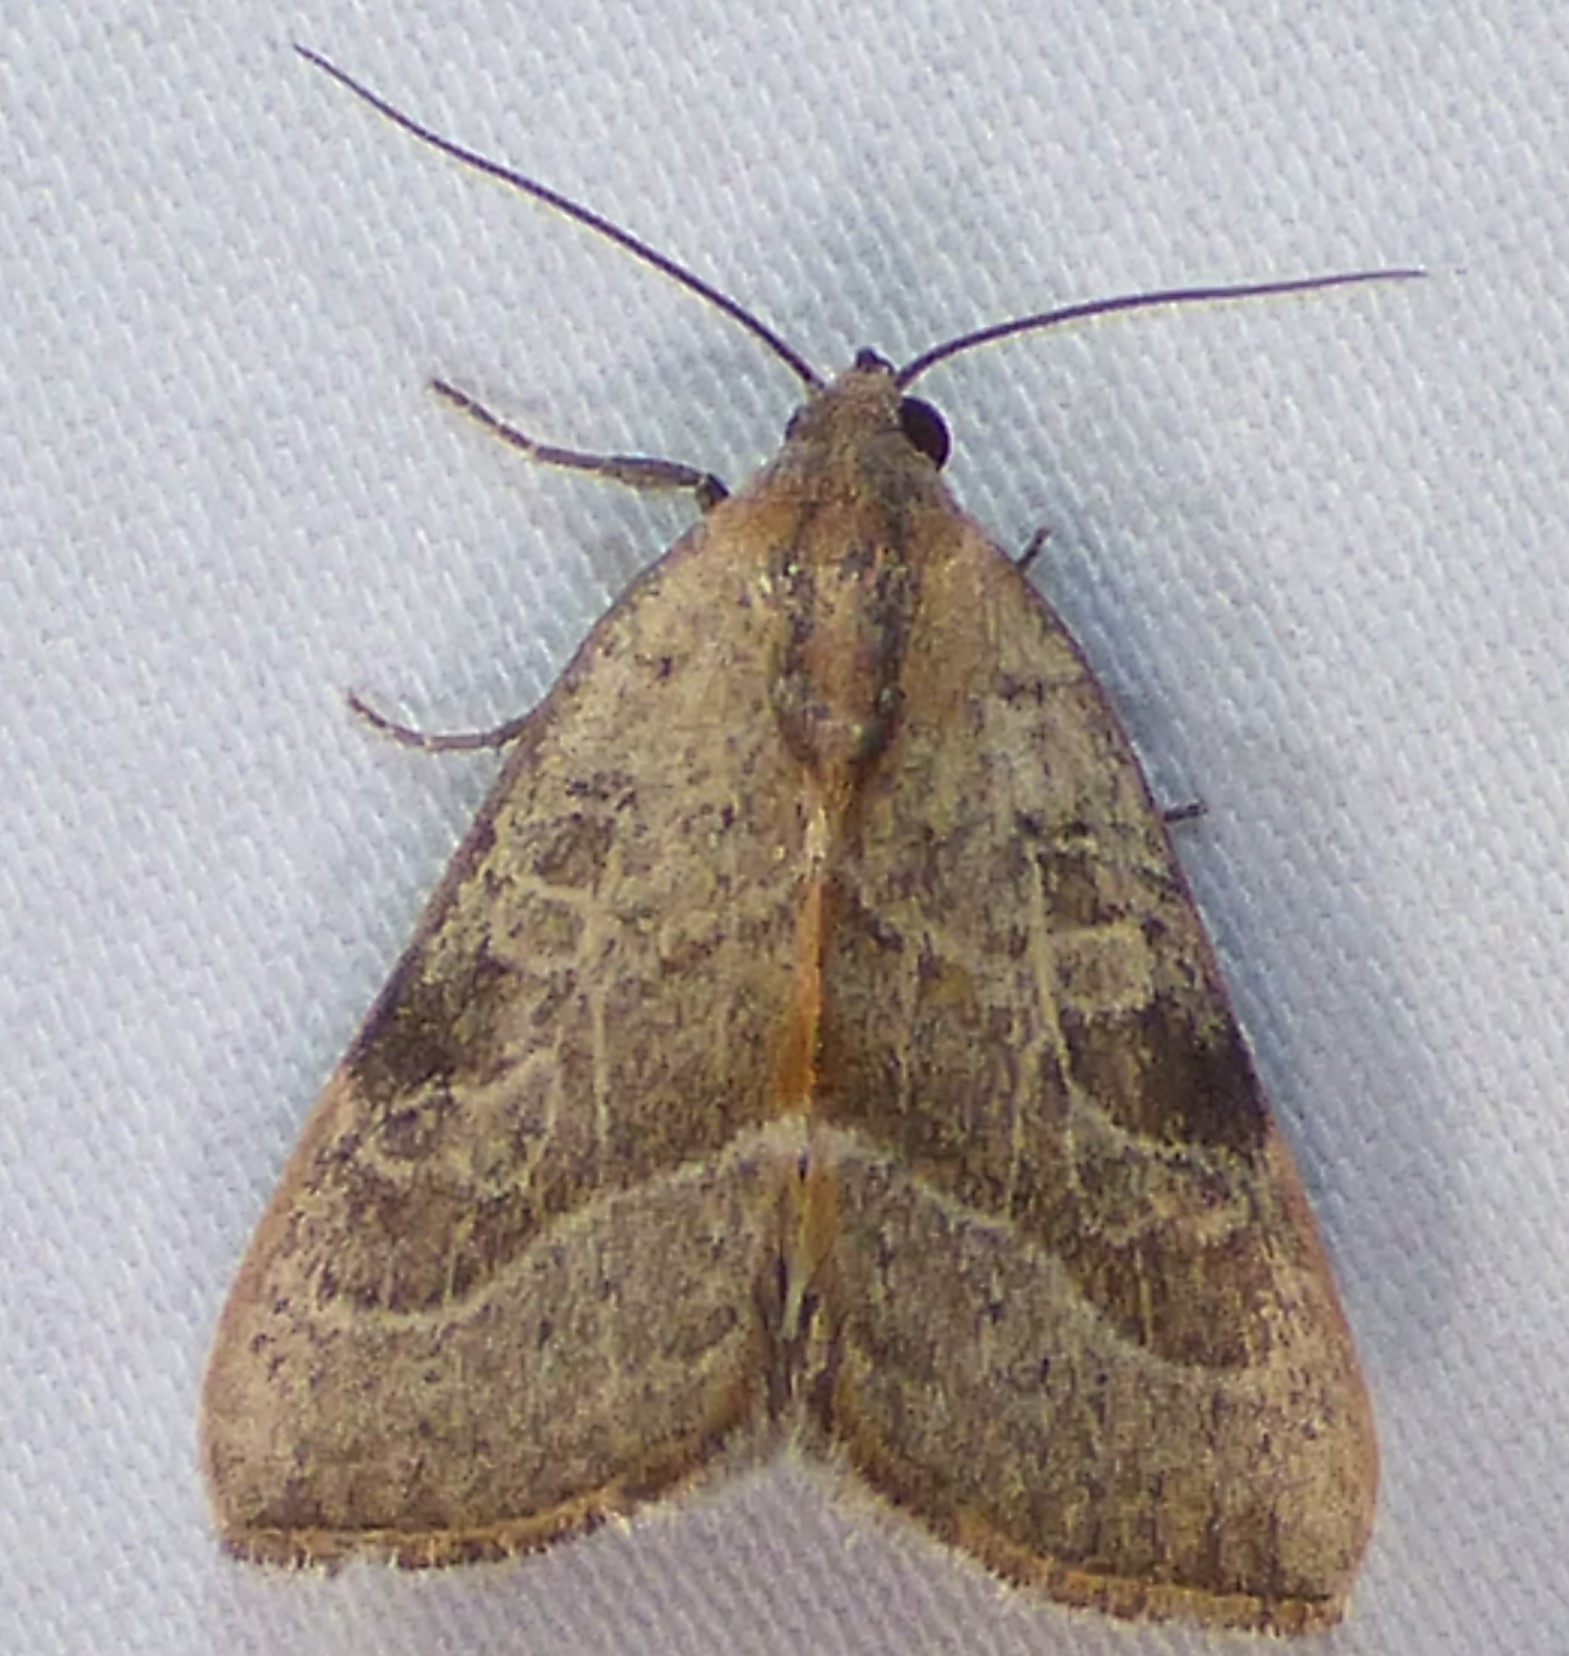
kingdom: Animalia
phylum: Arthropoda
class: Insecta
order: Lepidoptera
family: Noctuidae
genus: Galgula
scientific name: Galgula partita
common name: Wedgeling
